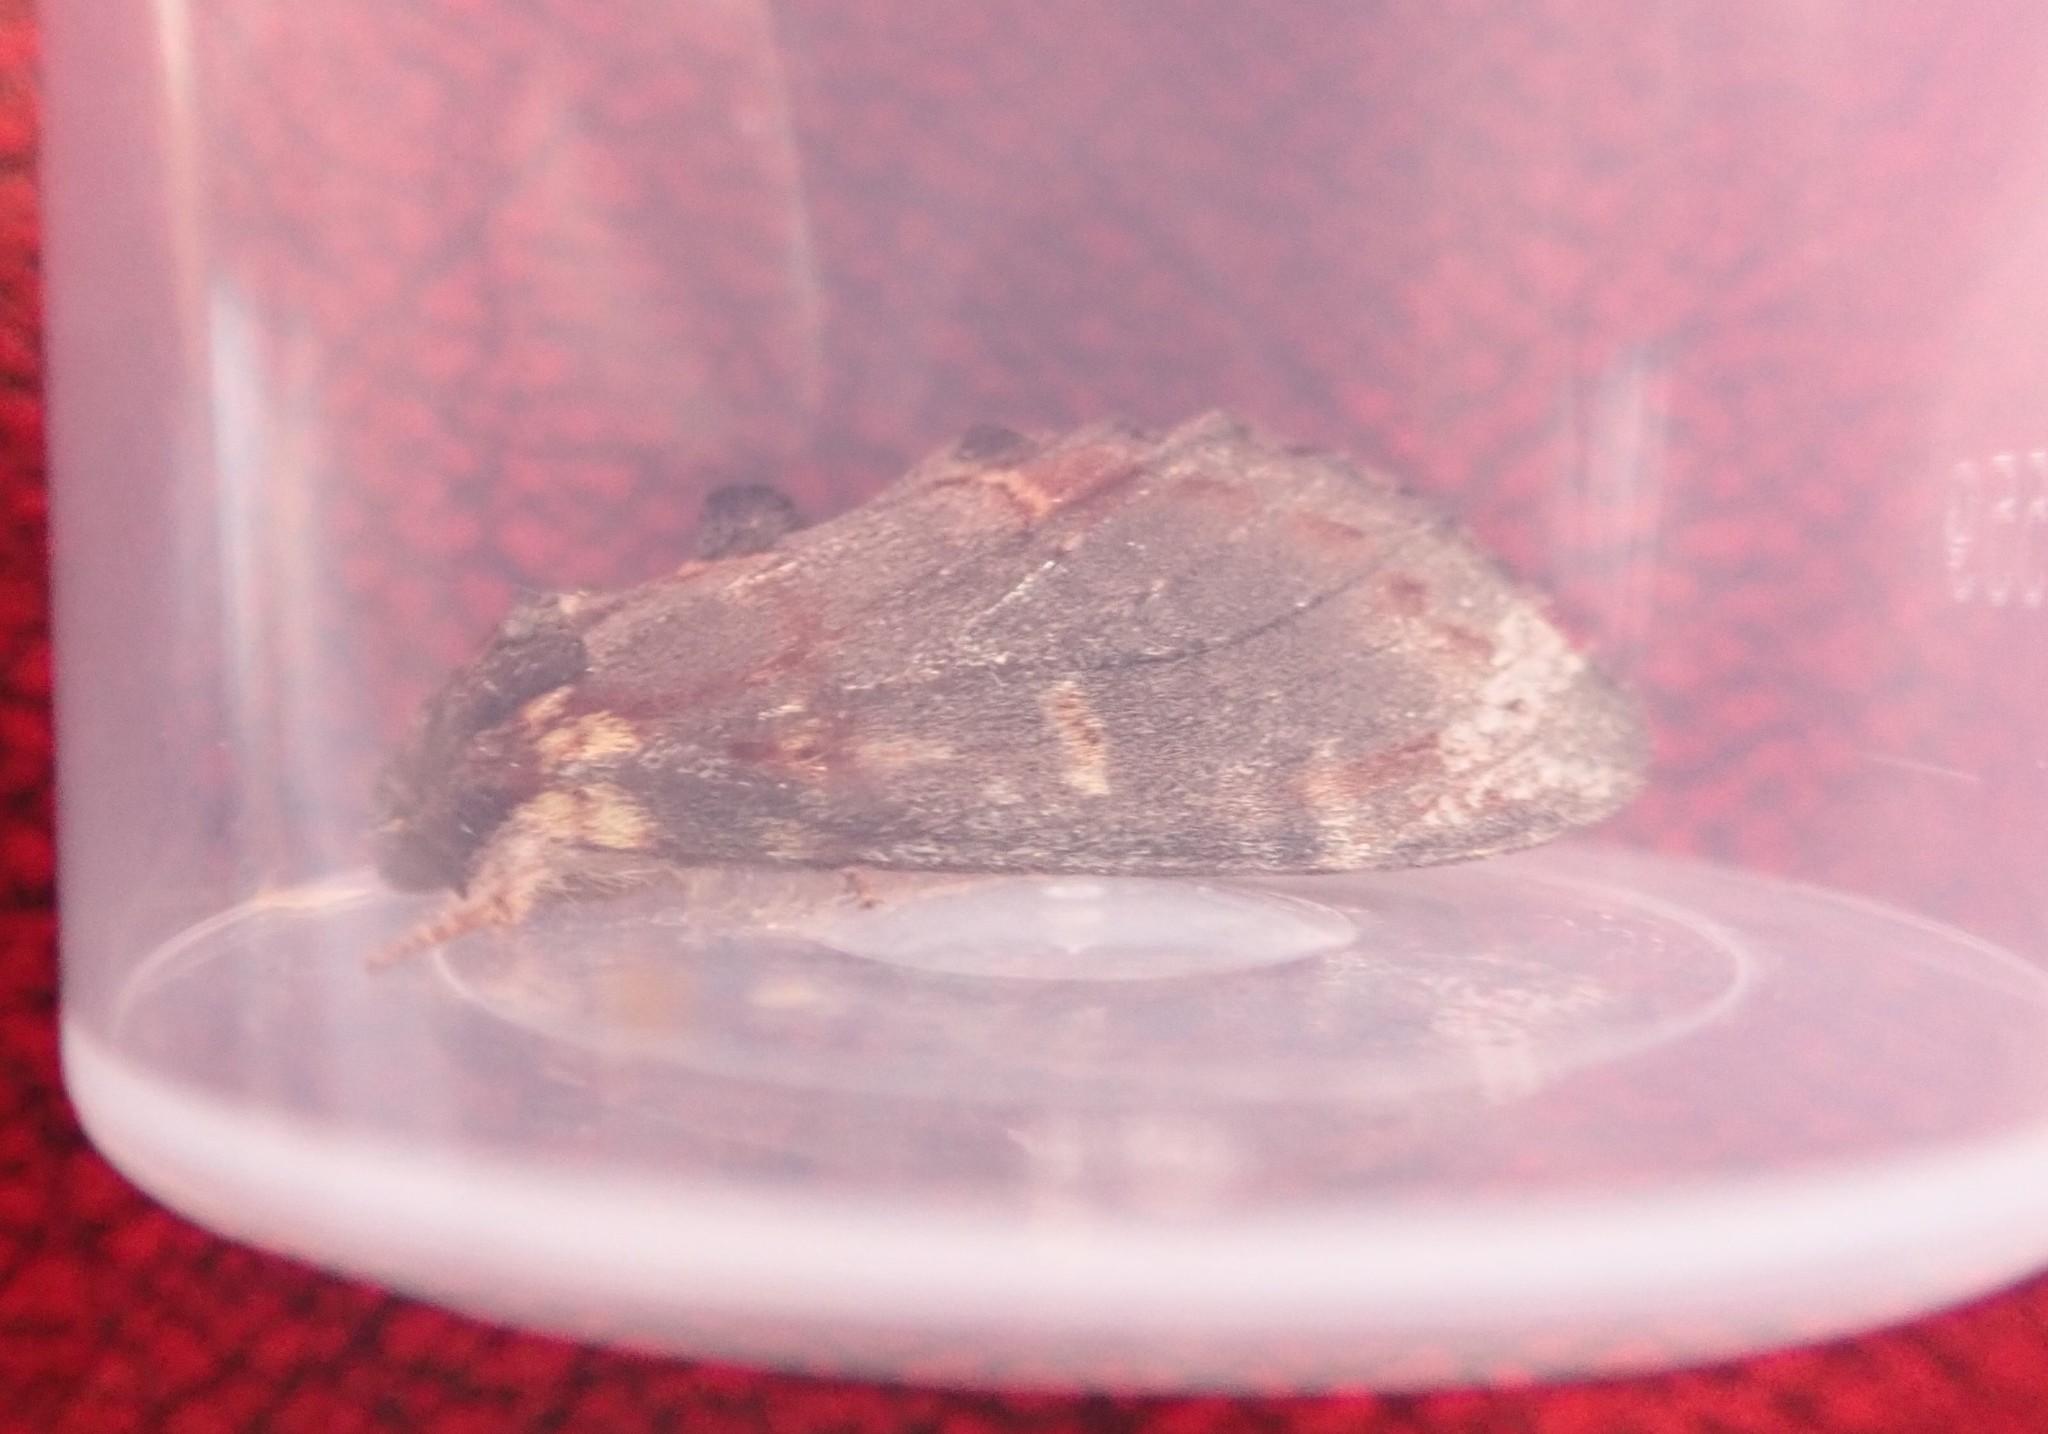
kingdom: Animalia
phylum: Arthropoda
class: Insecta
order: Lepidoptera
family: Notodontidae
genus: Notodonta
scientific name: Notodonta dromedarius
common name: Iron prominent
